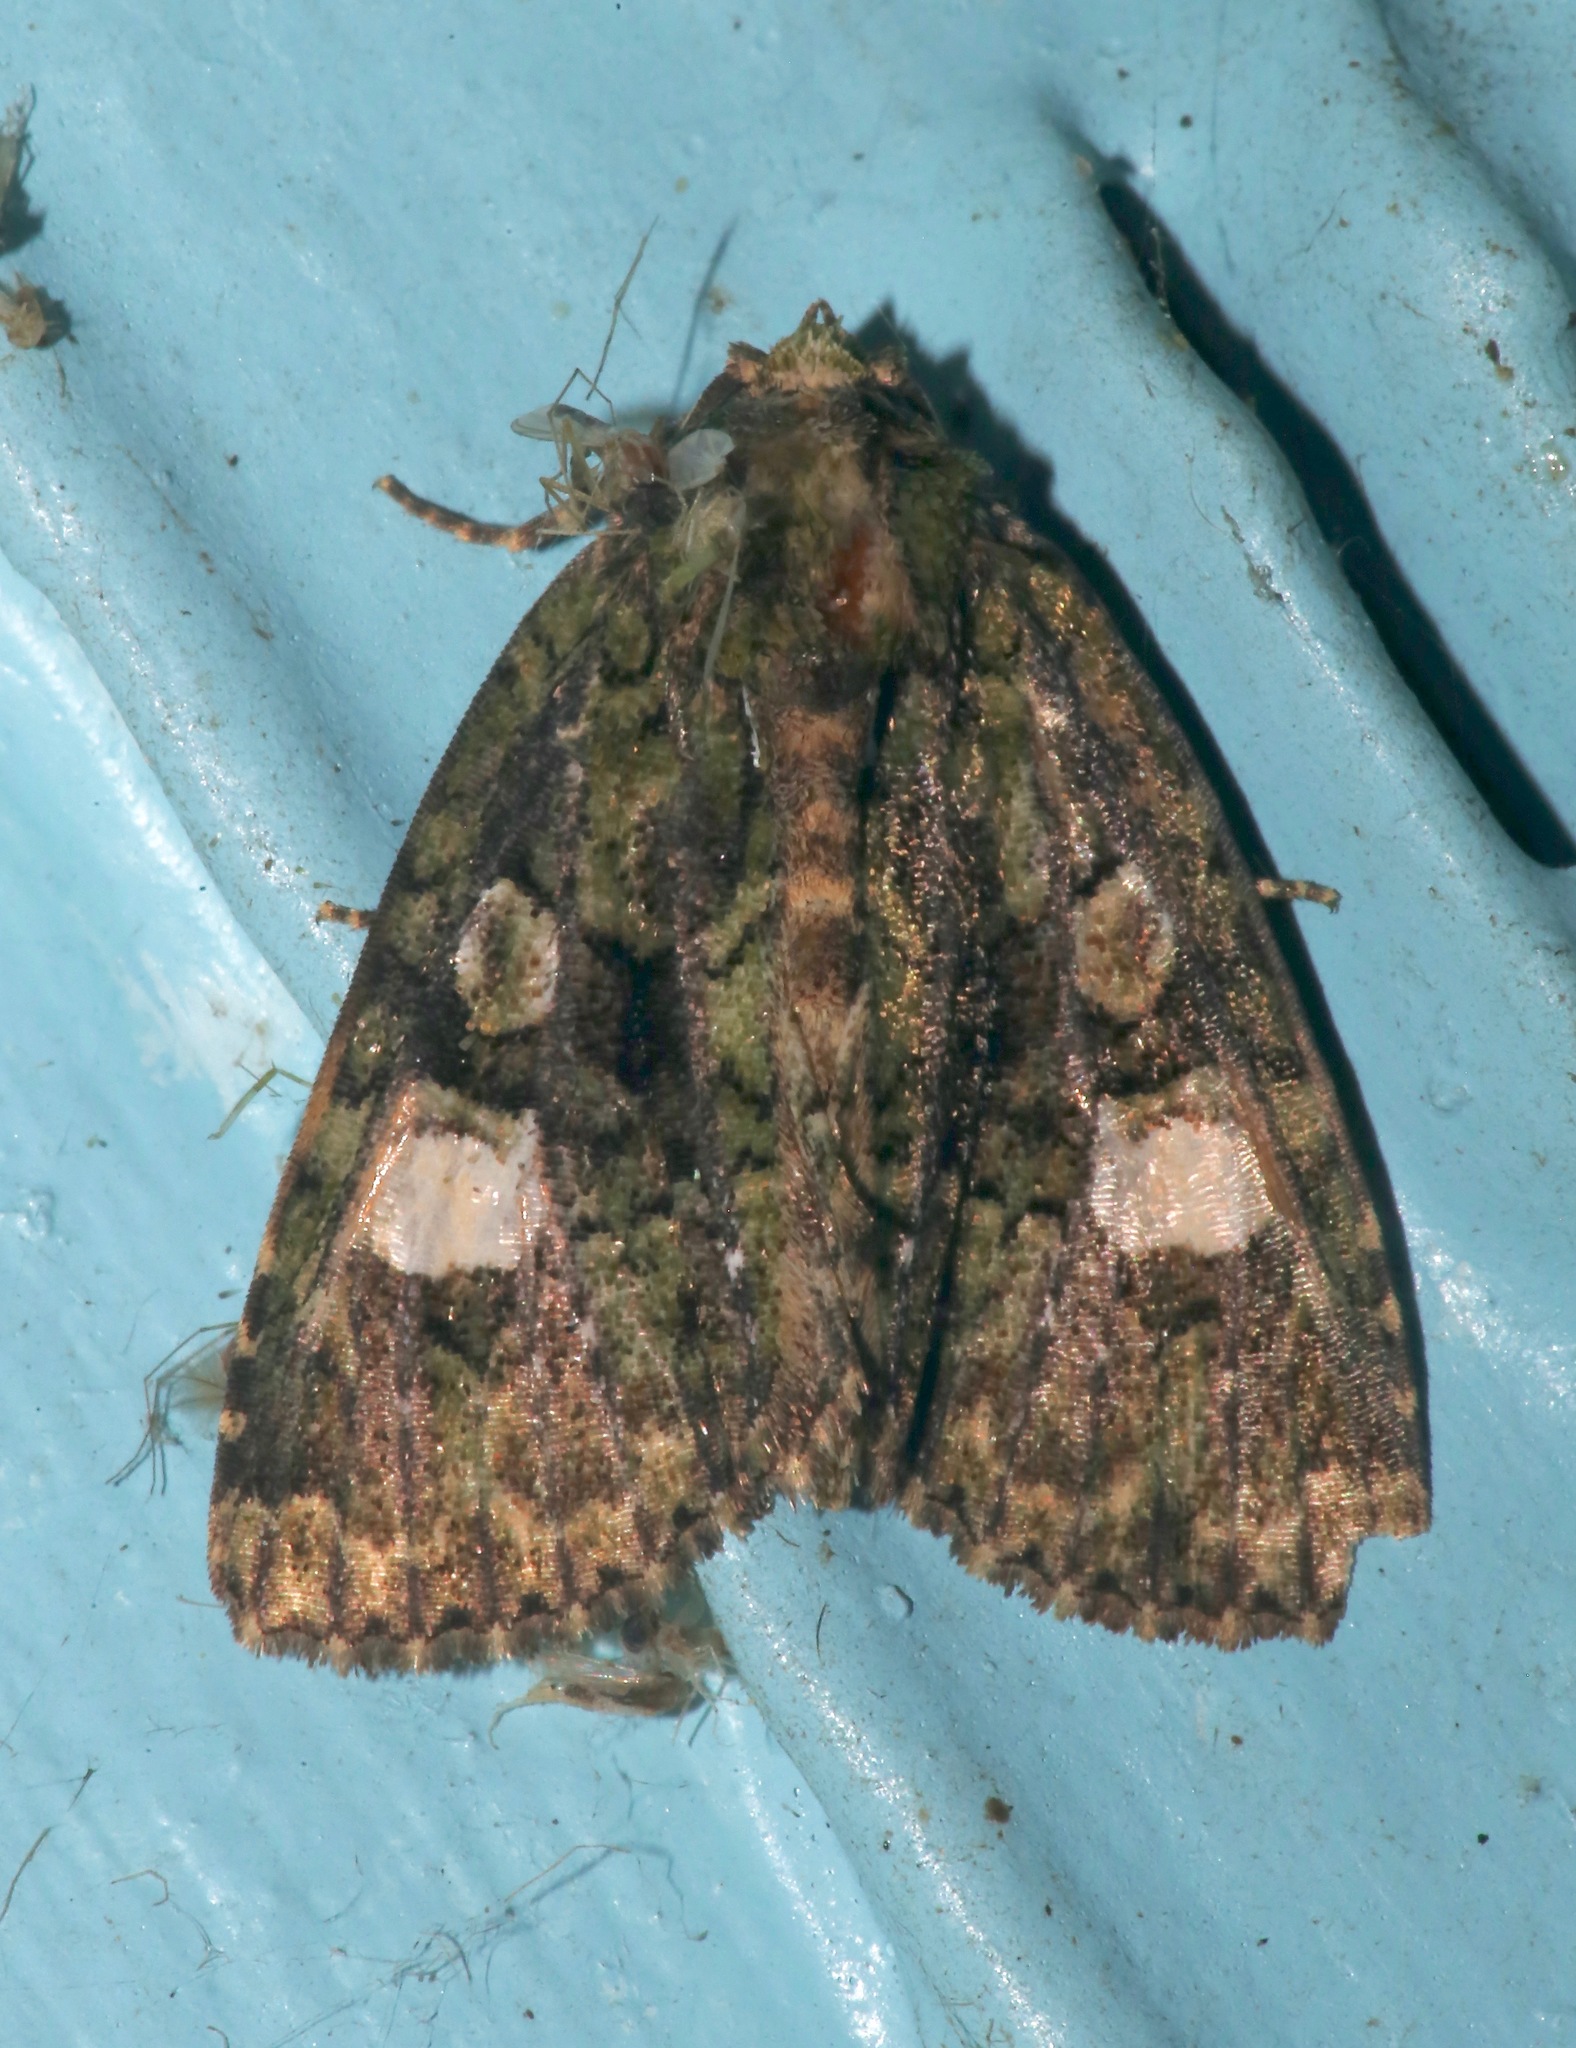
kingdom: Animalia
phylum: Arthropoda
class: Insecta
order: Lepidoptera
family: Noctuidae
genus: Phosphila
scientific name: Phosphila miselioides
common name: Spotted phosphila moth
